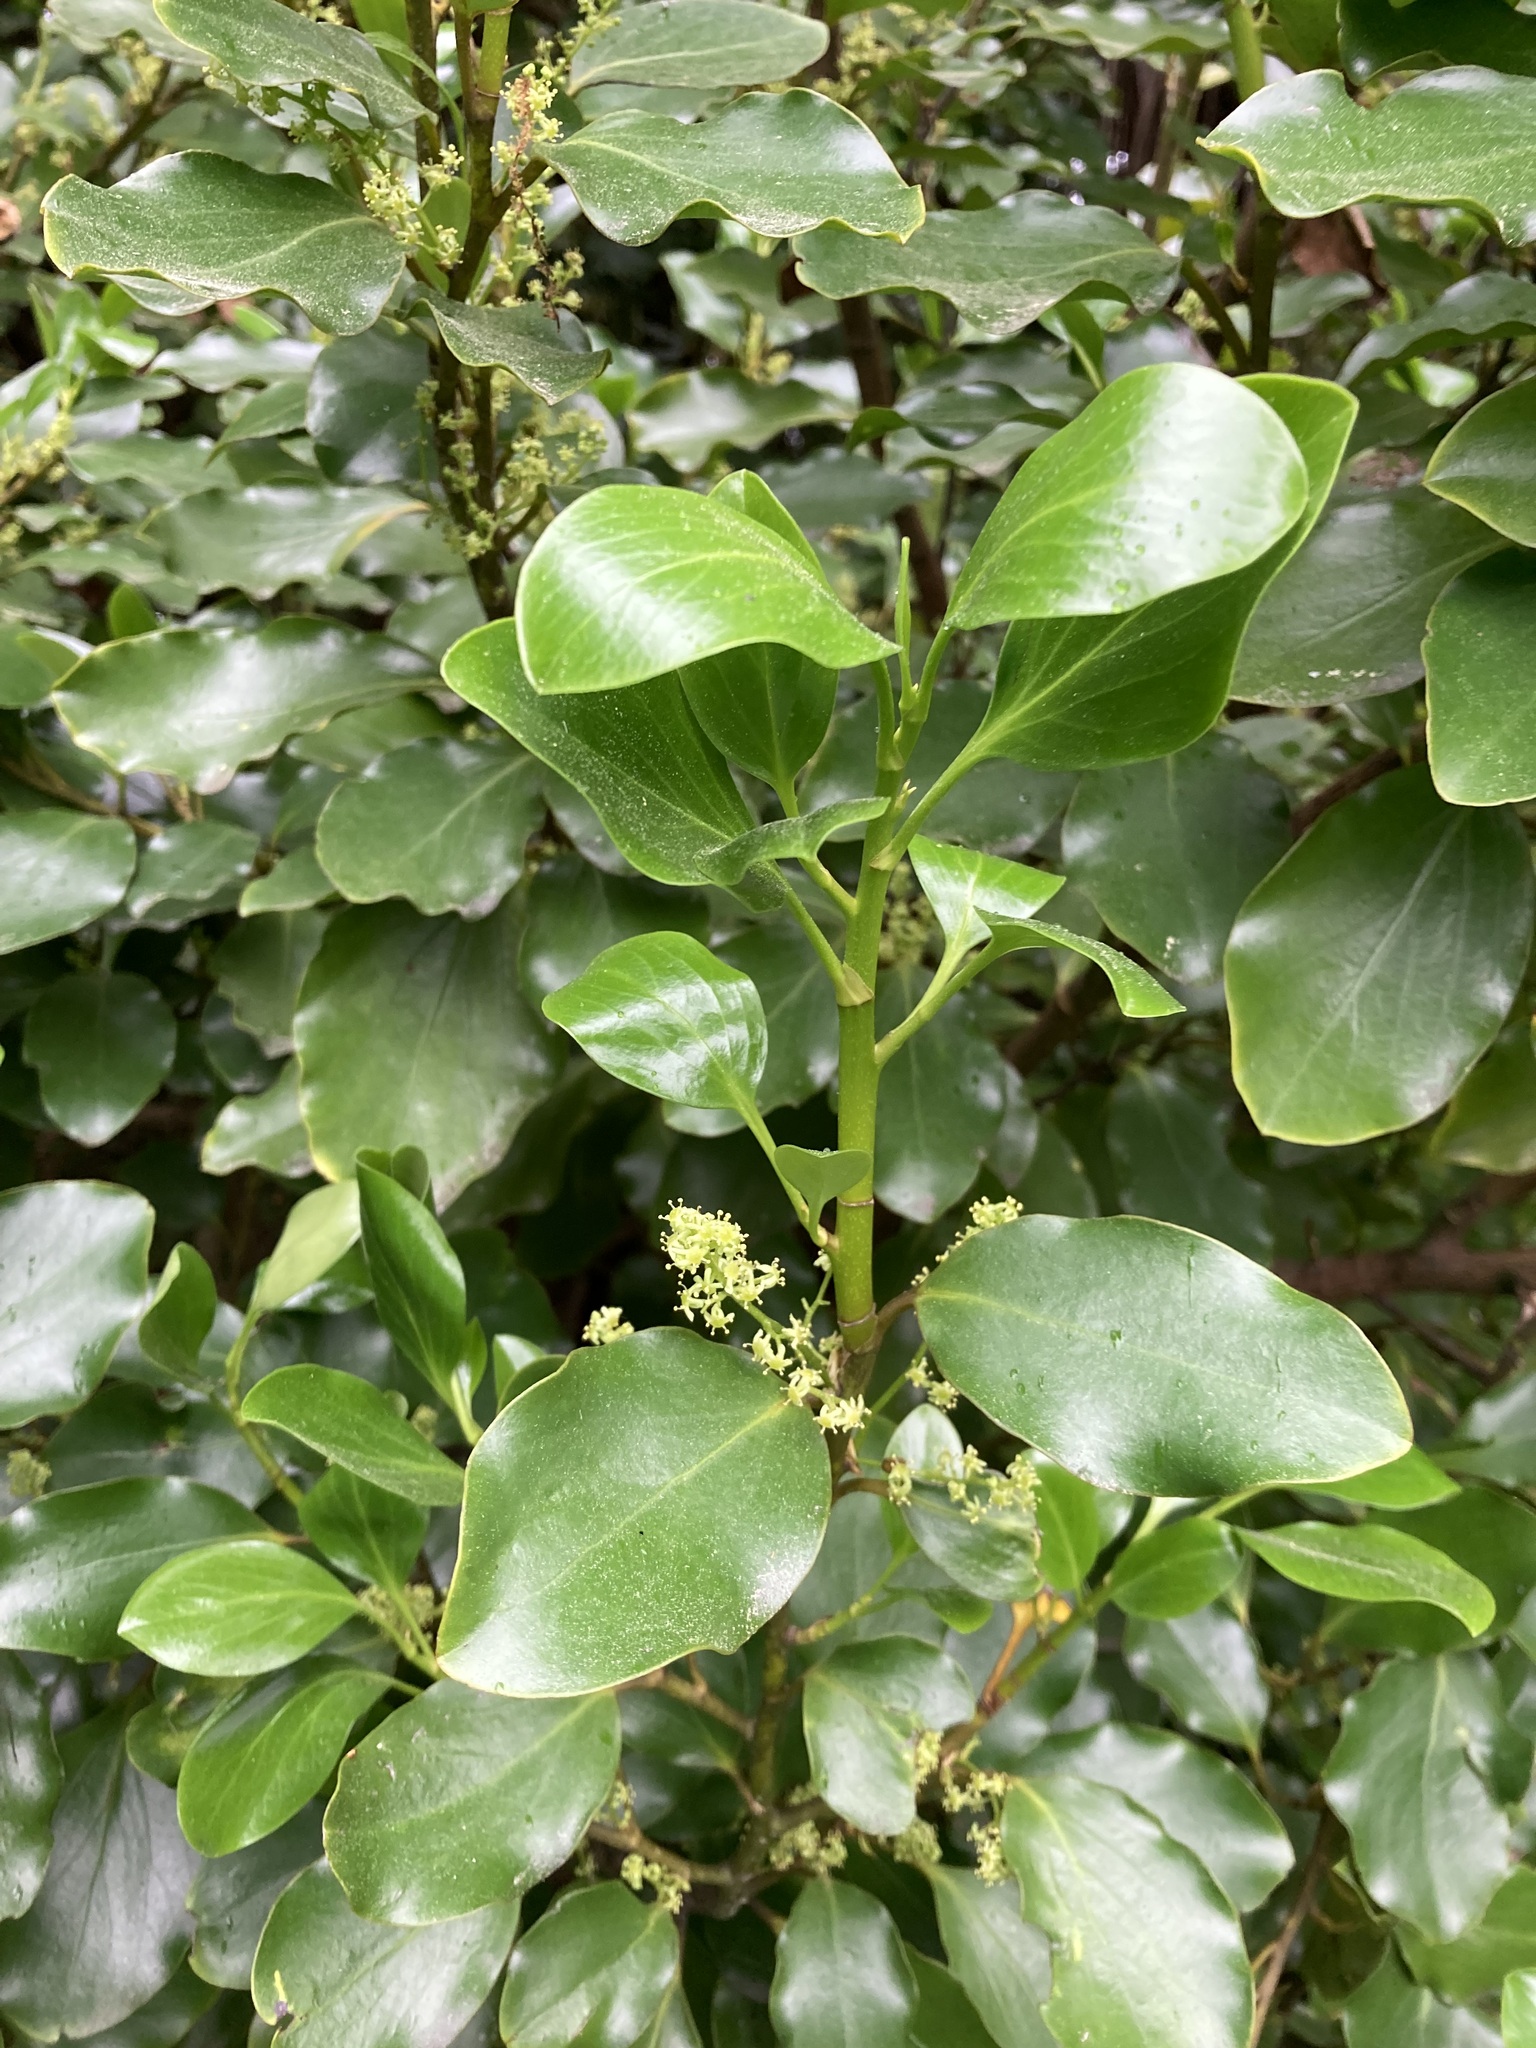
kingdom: Plantae
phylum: Tracheophyta
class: Magnoliopsida
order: Apiales
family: Griseliniaceae
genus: Griselinia
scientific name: Griselinia littoralis
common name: New zealand broadleaf
